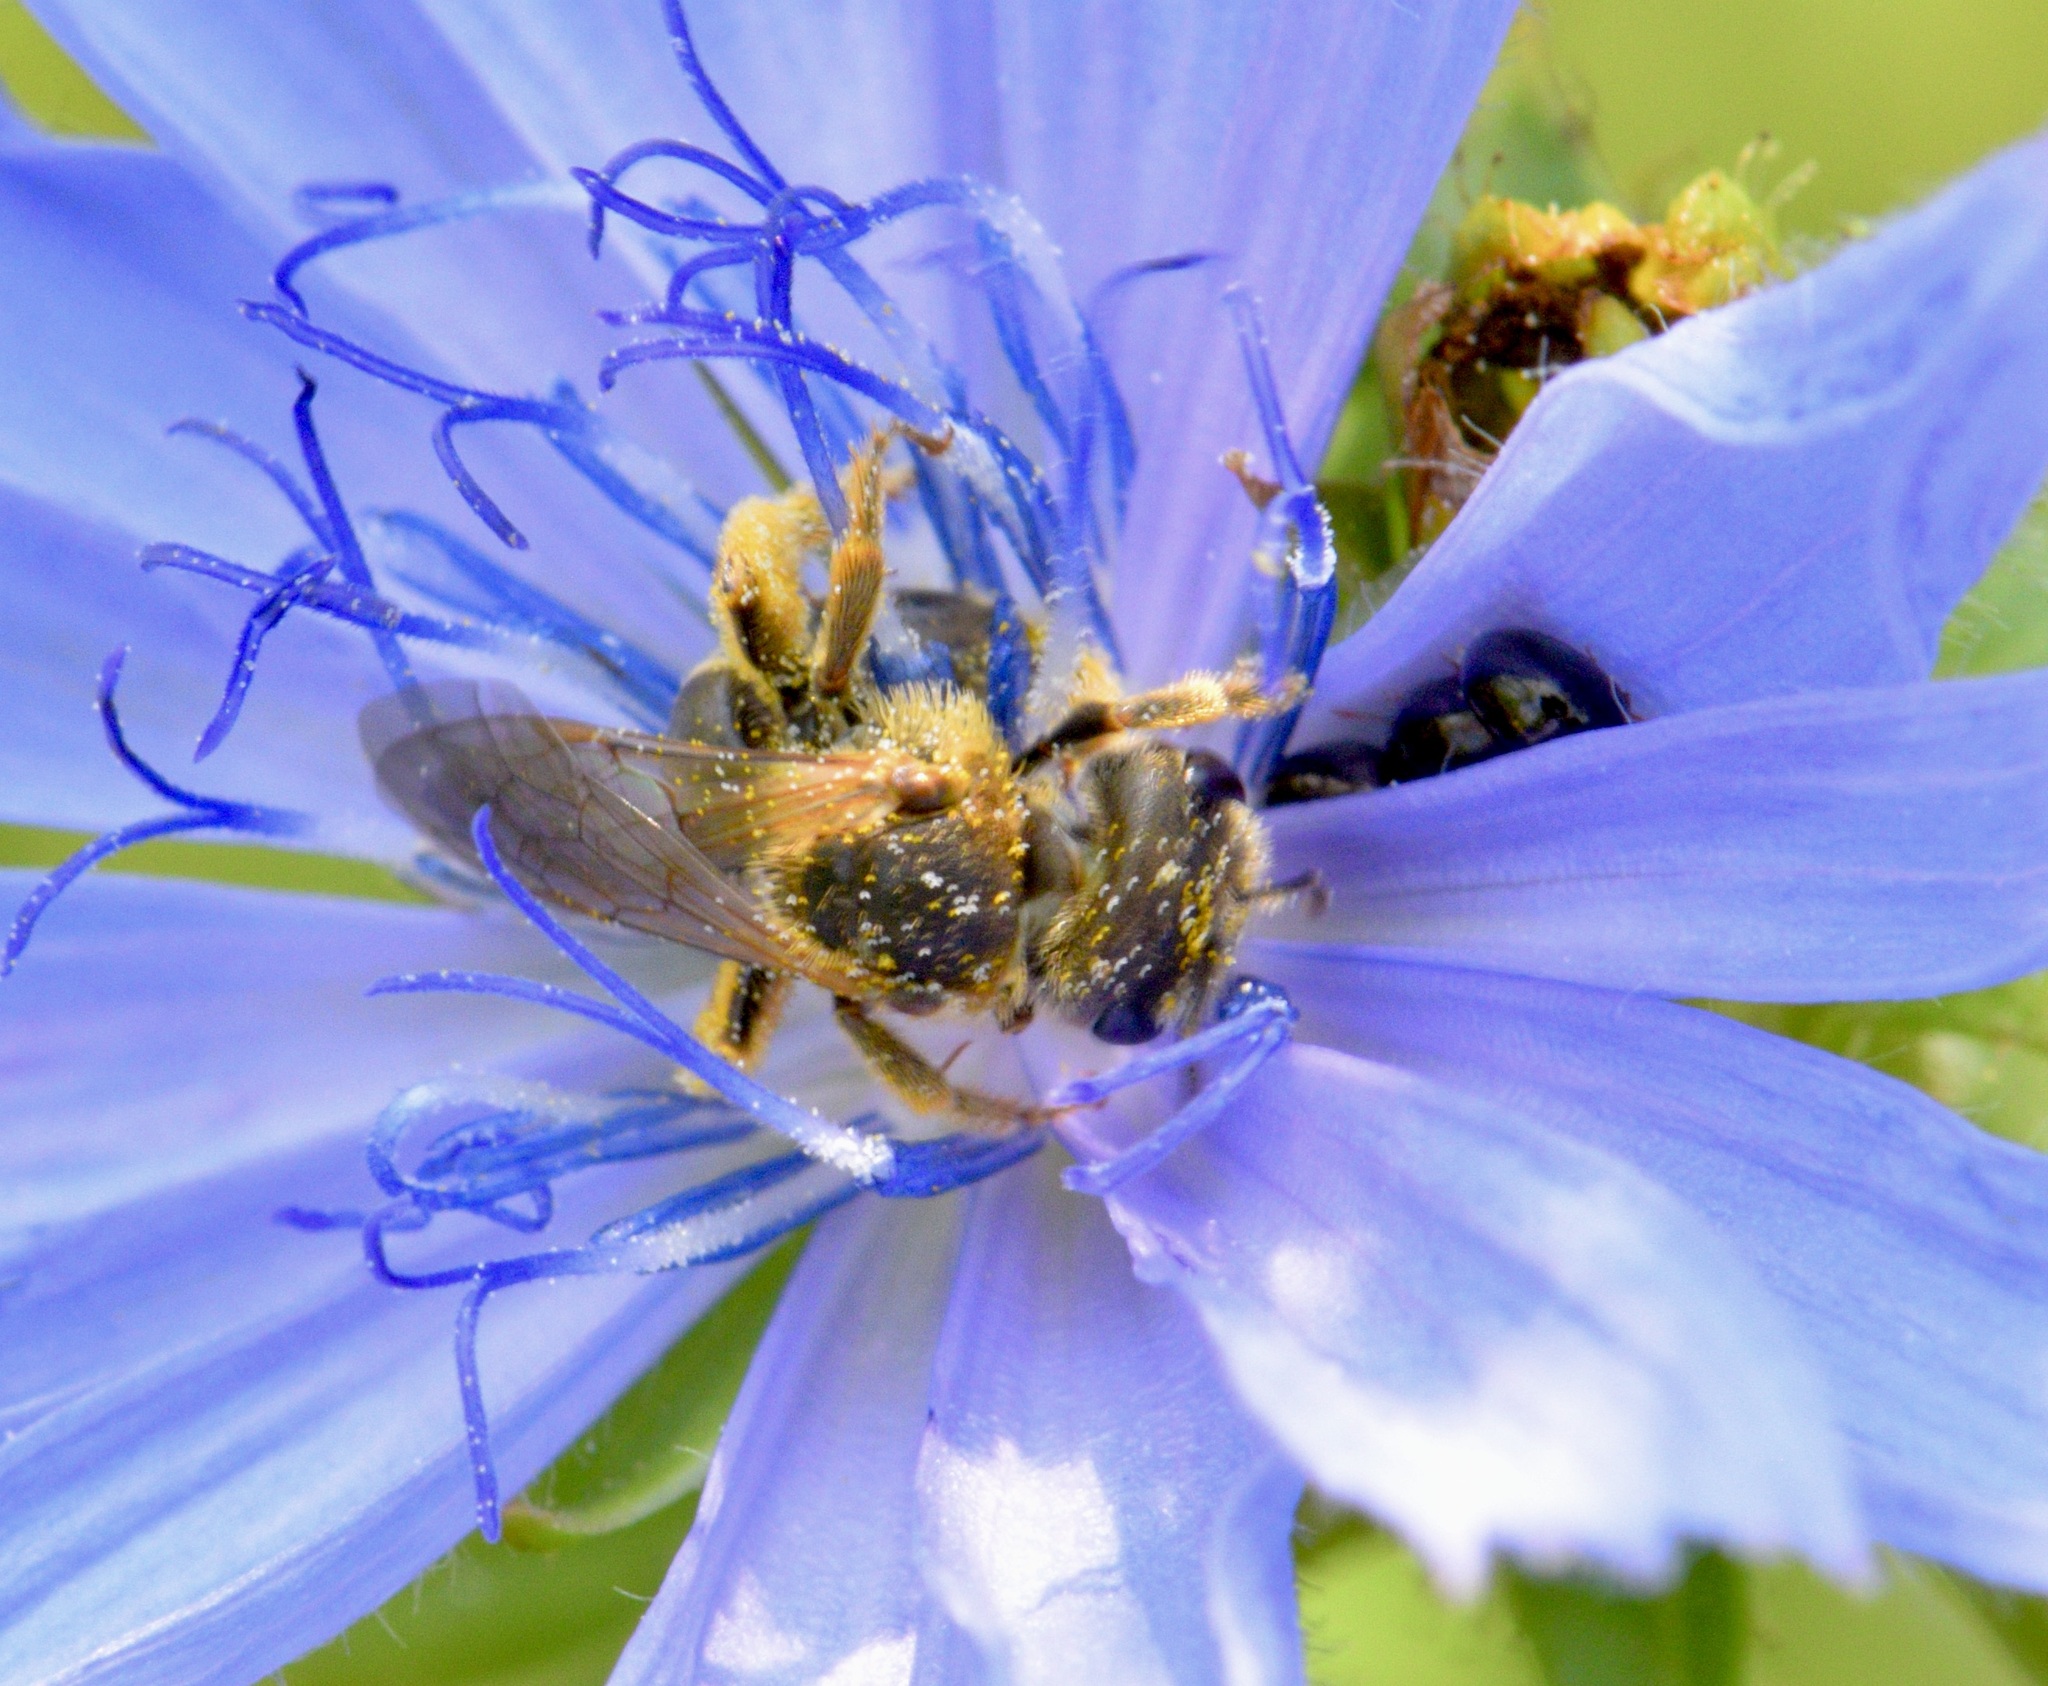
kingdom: Animalia
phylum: Arthropoda
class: Insecta
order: Hymenoptera
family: Halictidae
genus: Halictus
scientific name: Halictus ligatus
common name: Ligated furrow bee
